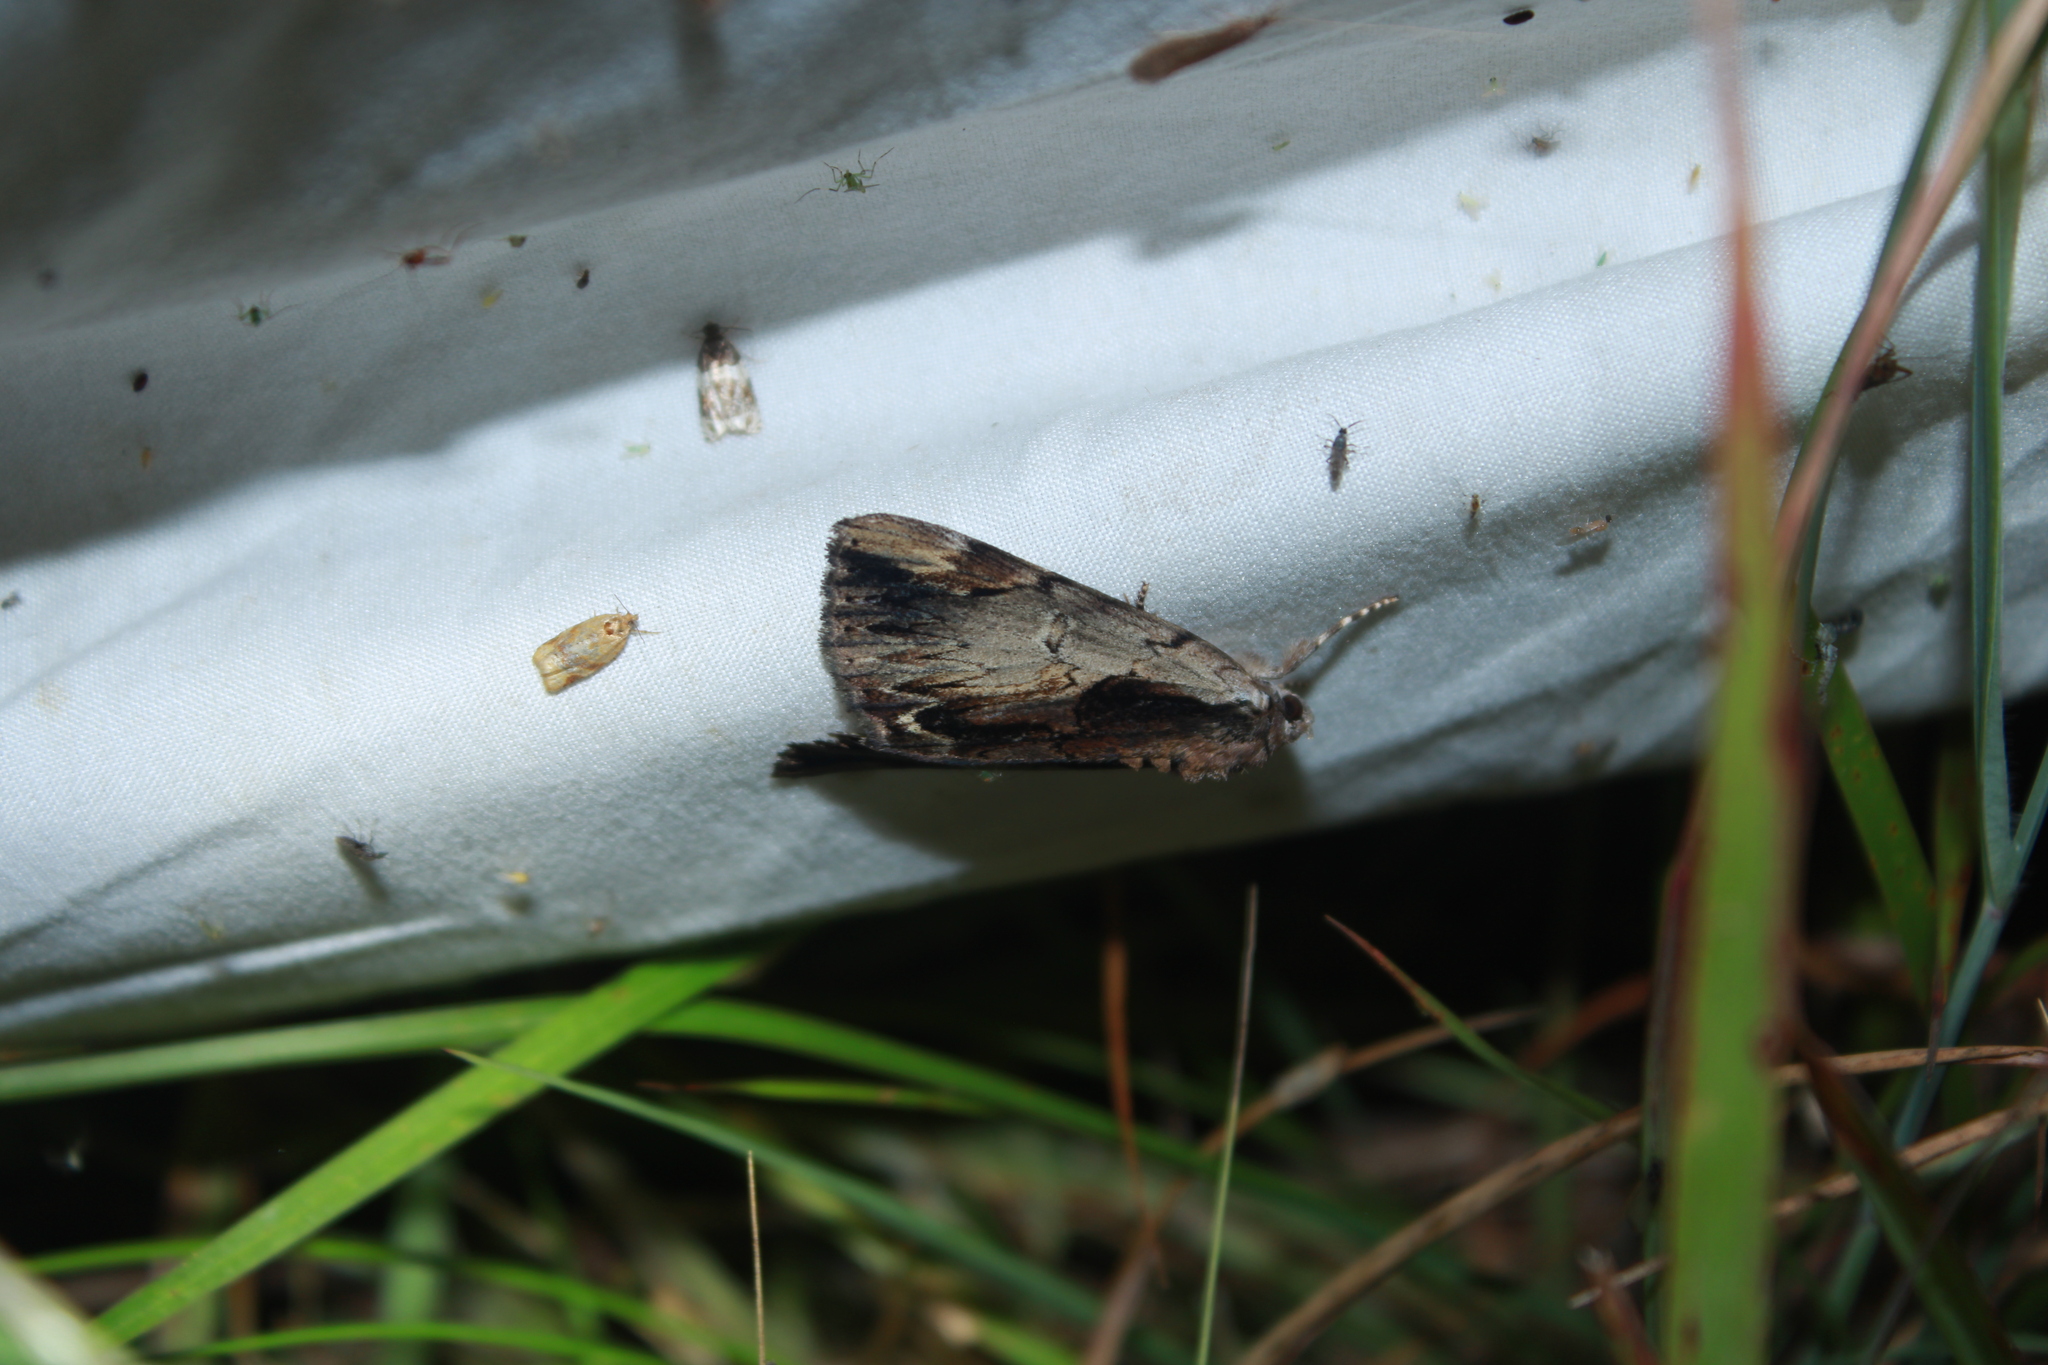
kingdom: Animalia
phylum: Arthropoda
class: Insecta
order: Lepidoptera
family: Erebidae
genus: Catocala
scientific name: Catocala ultronia
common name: Ultronia underwing
